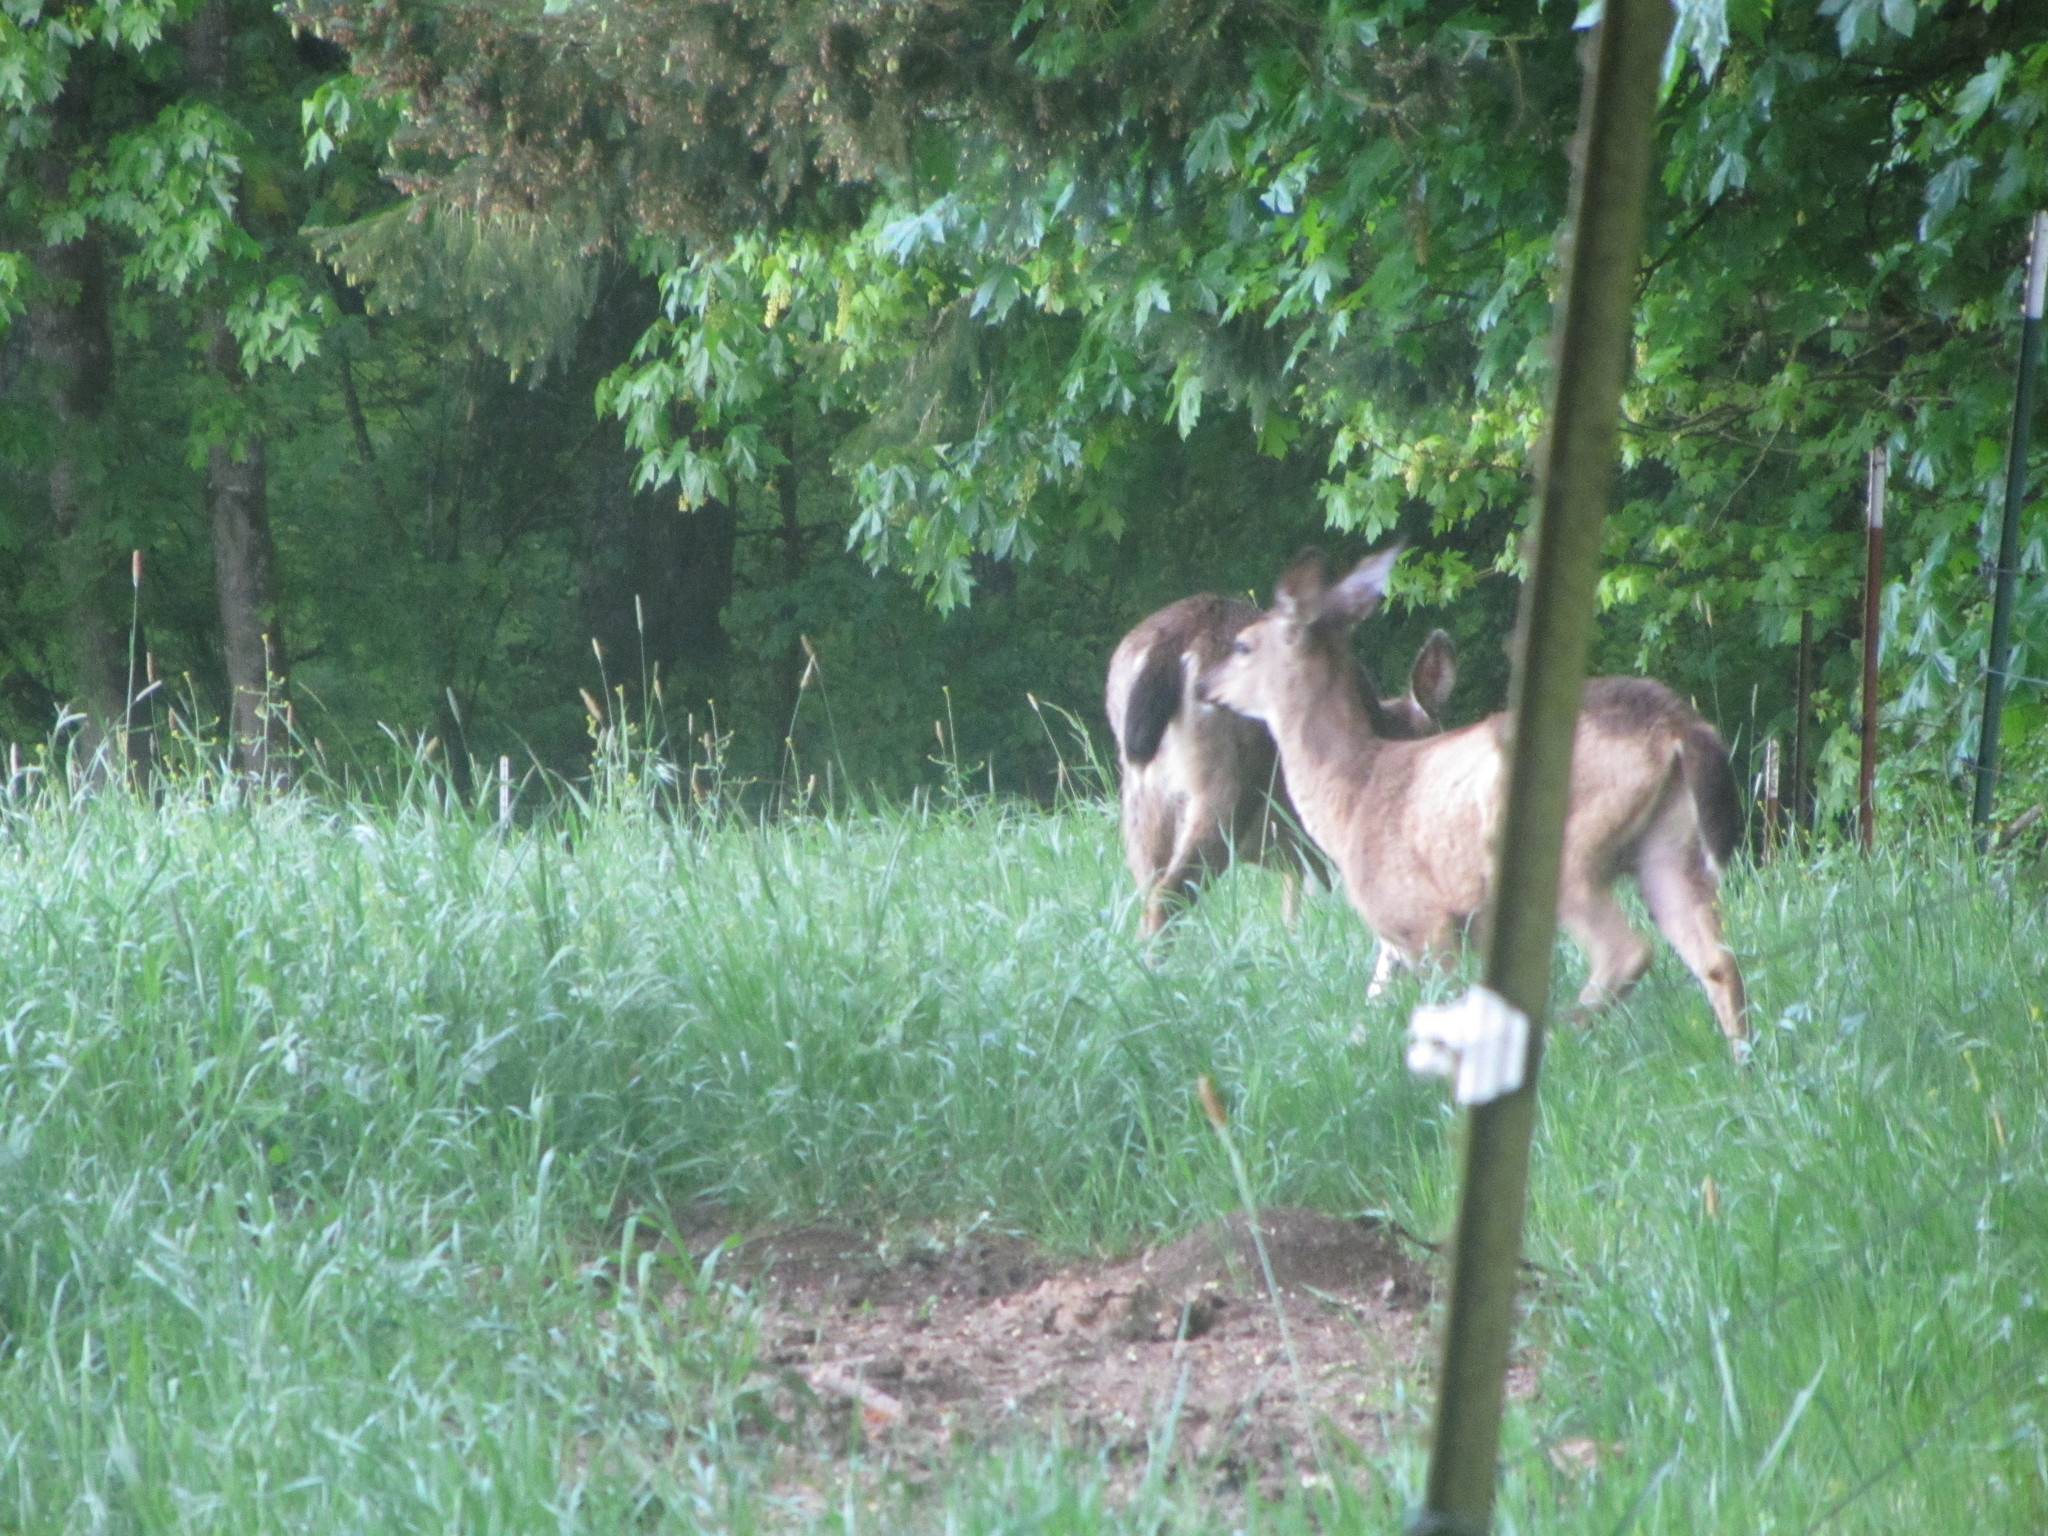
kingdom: Animalia
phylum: Chordata
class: Mammalia
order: Artiodactyla
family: Cervidae
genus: Odocoileus
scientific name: Odocoileus hemionus
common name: Mule deer
